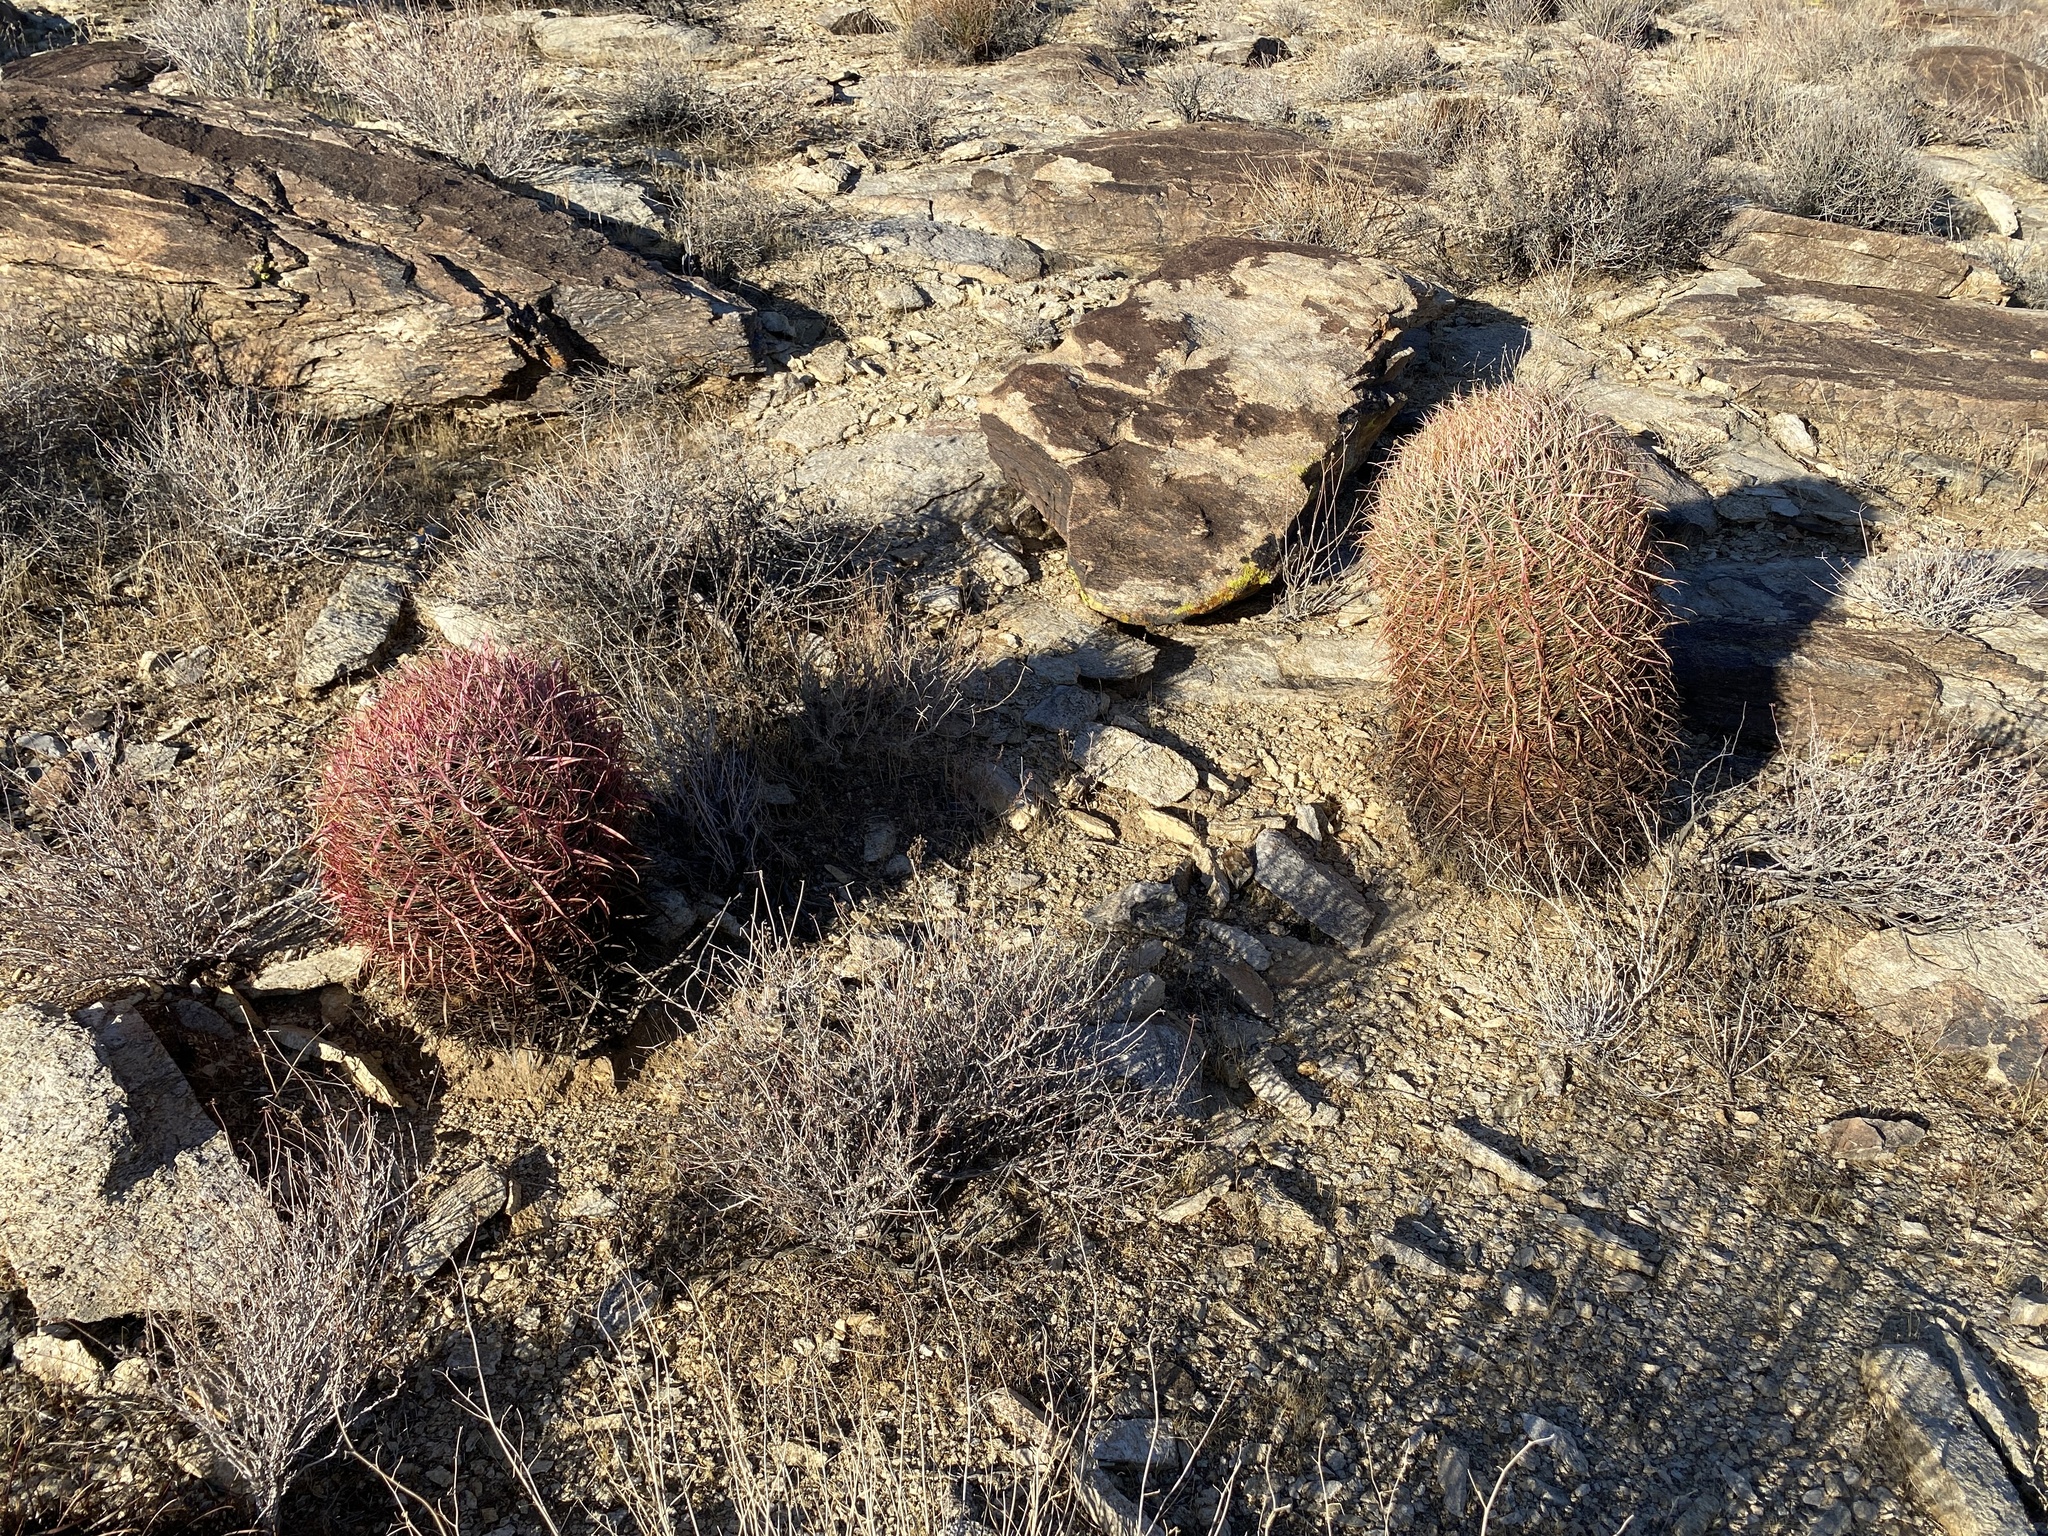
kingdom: Plantae
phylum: Tracheophyta
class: Magnoliopsida
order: Caryophyllales
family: Cactaceae
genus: Ferocactus
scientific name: Ferocactus cylindraceus
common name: California barrel cactus
